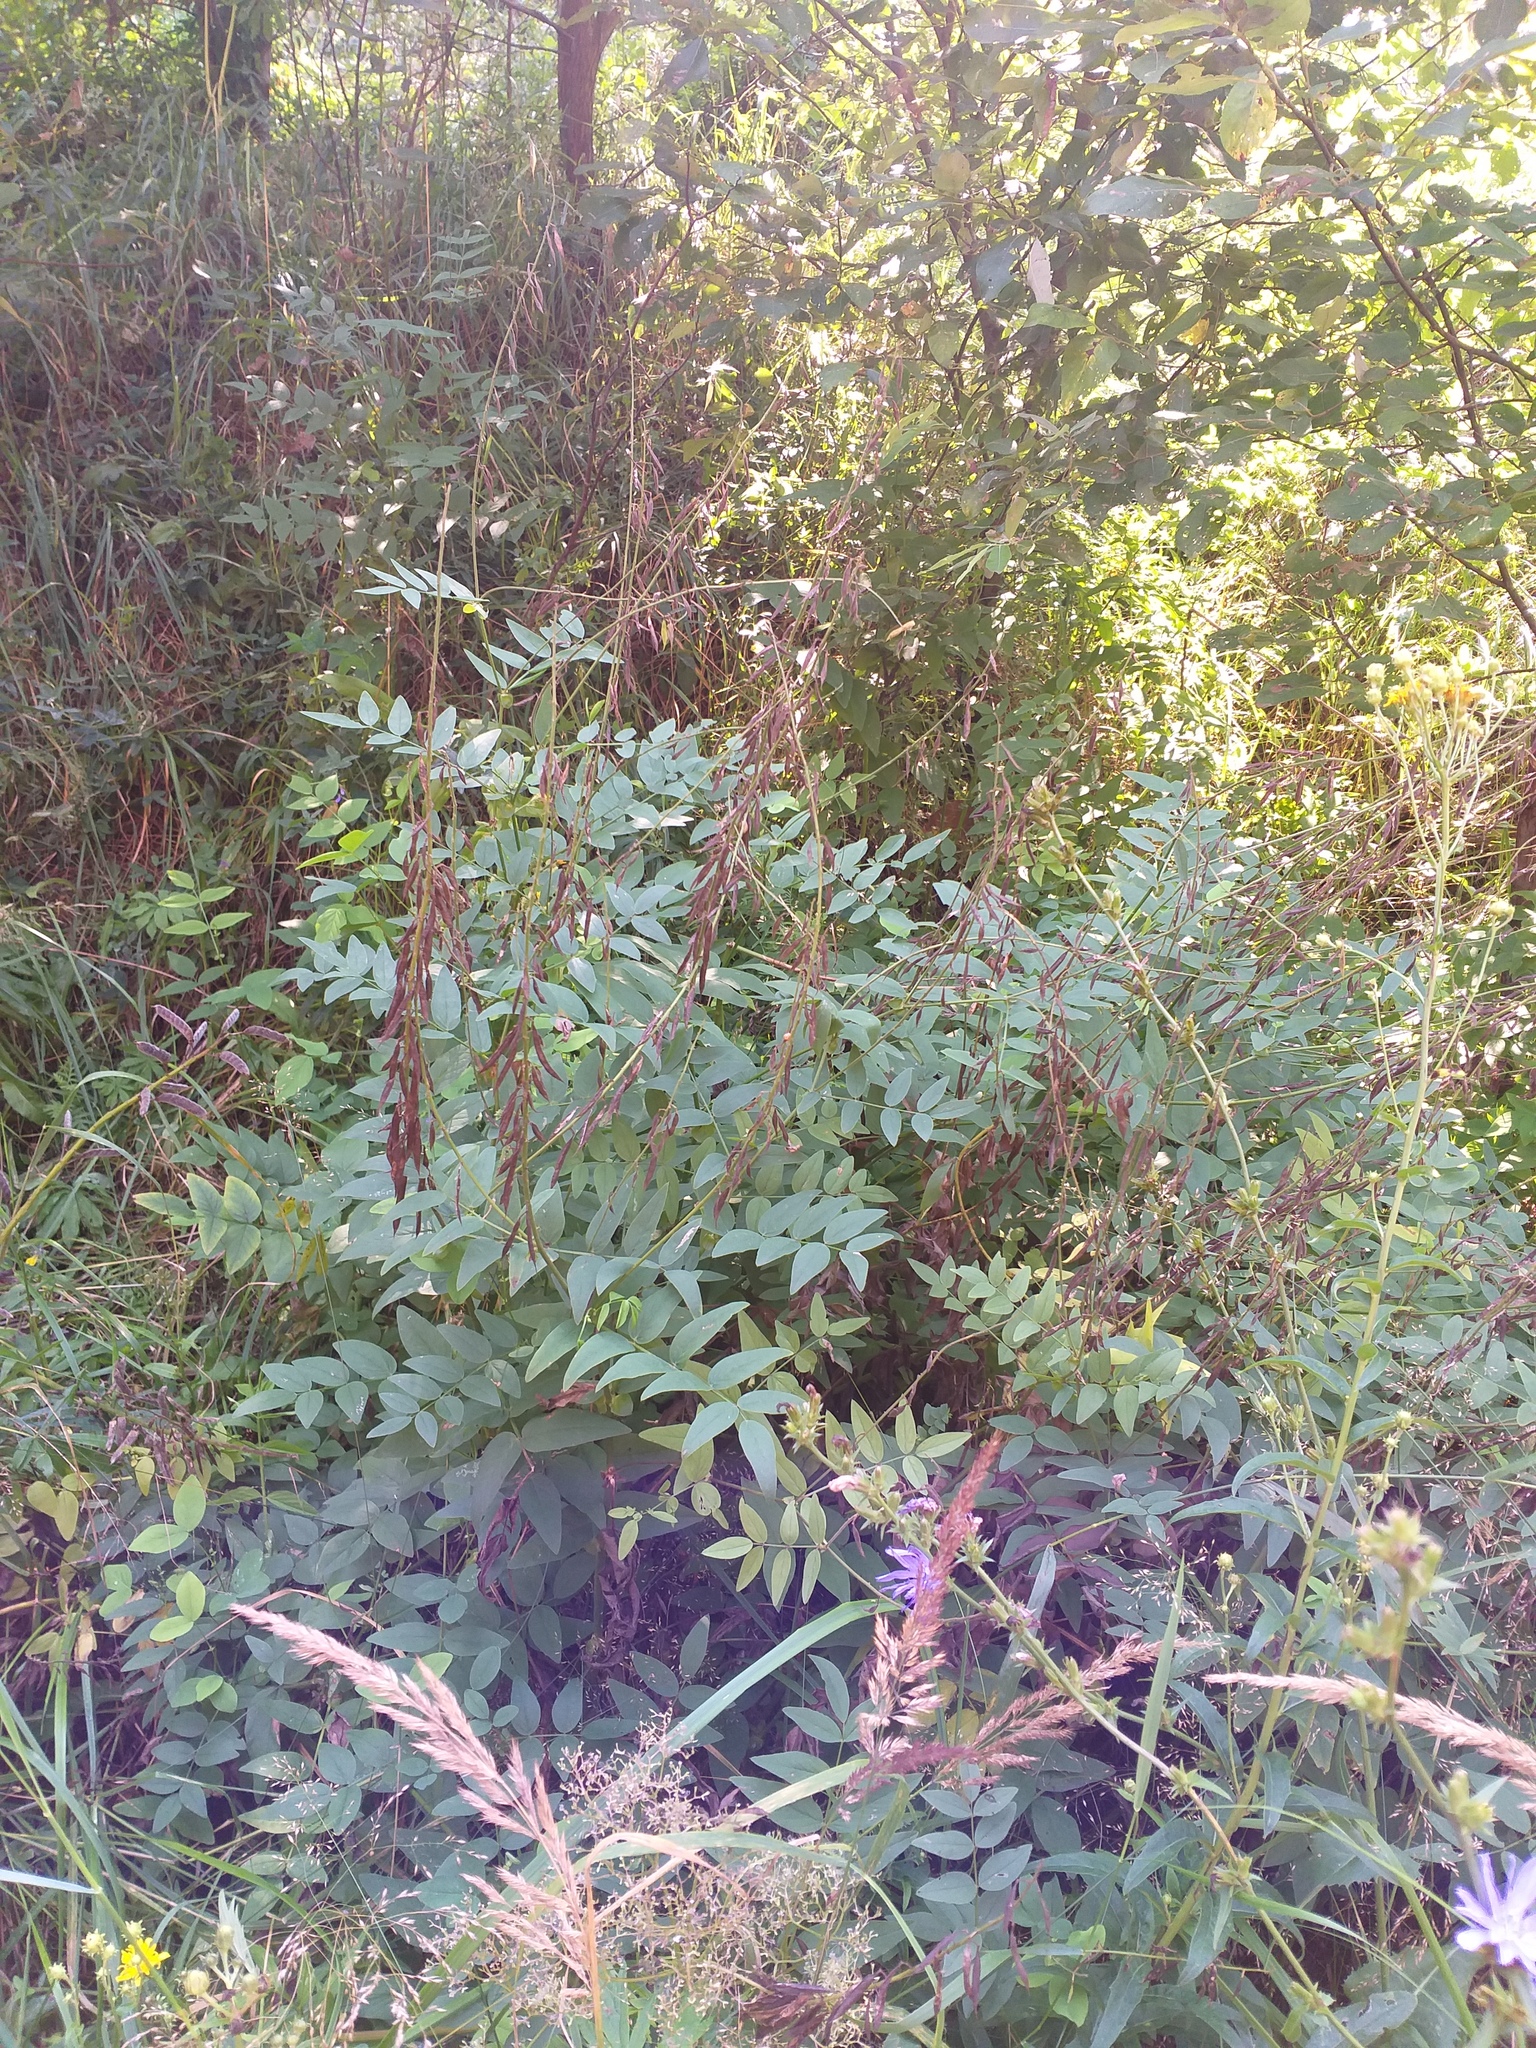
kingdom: Plantae
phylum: Tracheophyta
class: Magnoliopsida
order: Fabales
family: Fabaceae
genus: Galega
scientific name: Galega orientalis
